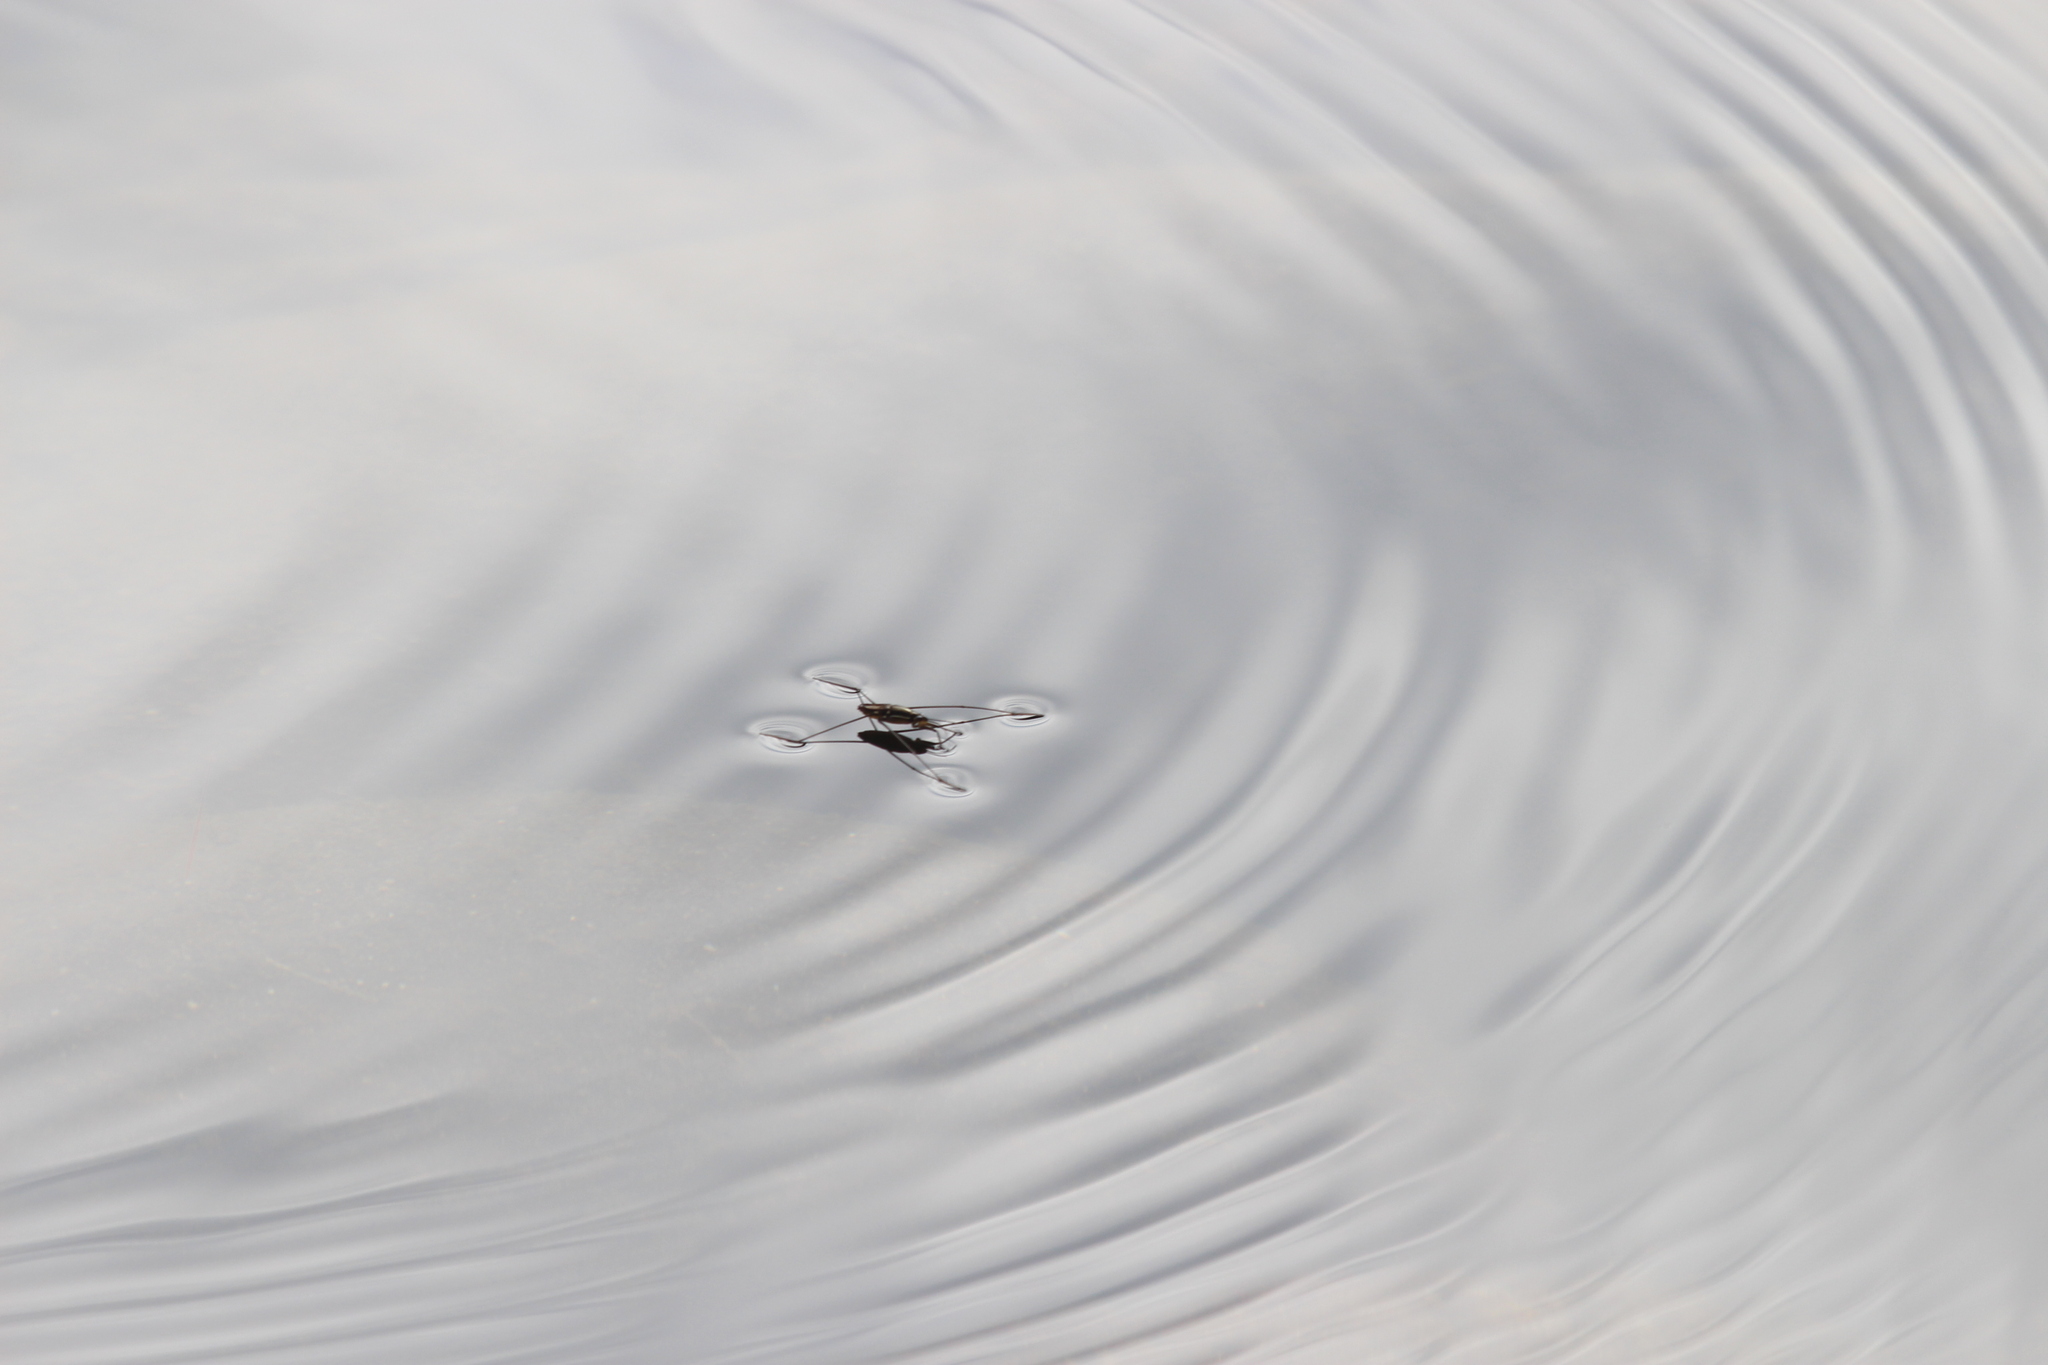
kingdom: Animalia
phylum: Arthropoda
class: Insecta
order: Hemiptera
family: Gerridae
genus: Potamobates
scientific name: Potamobates
